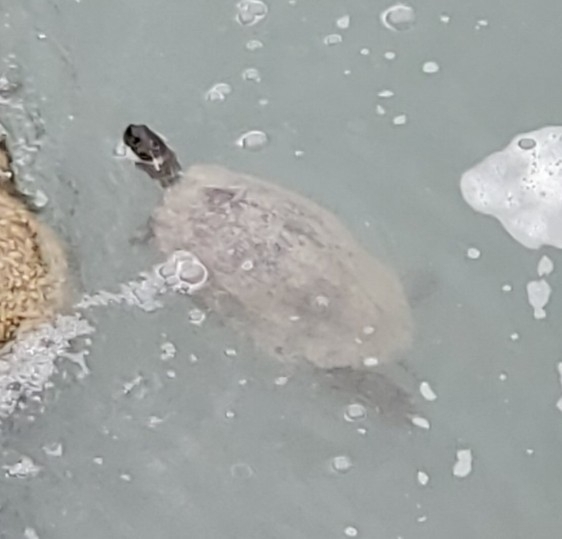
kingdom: Animalia
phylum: Chordata
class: Testudines
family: Emydidae
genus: Pseudemys
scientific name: Pseudemys texana
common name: Texas river cooter
